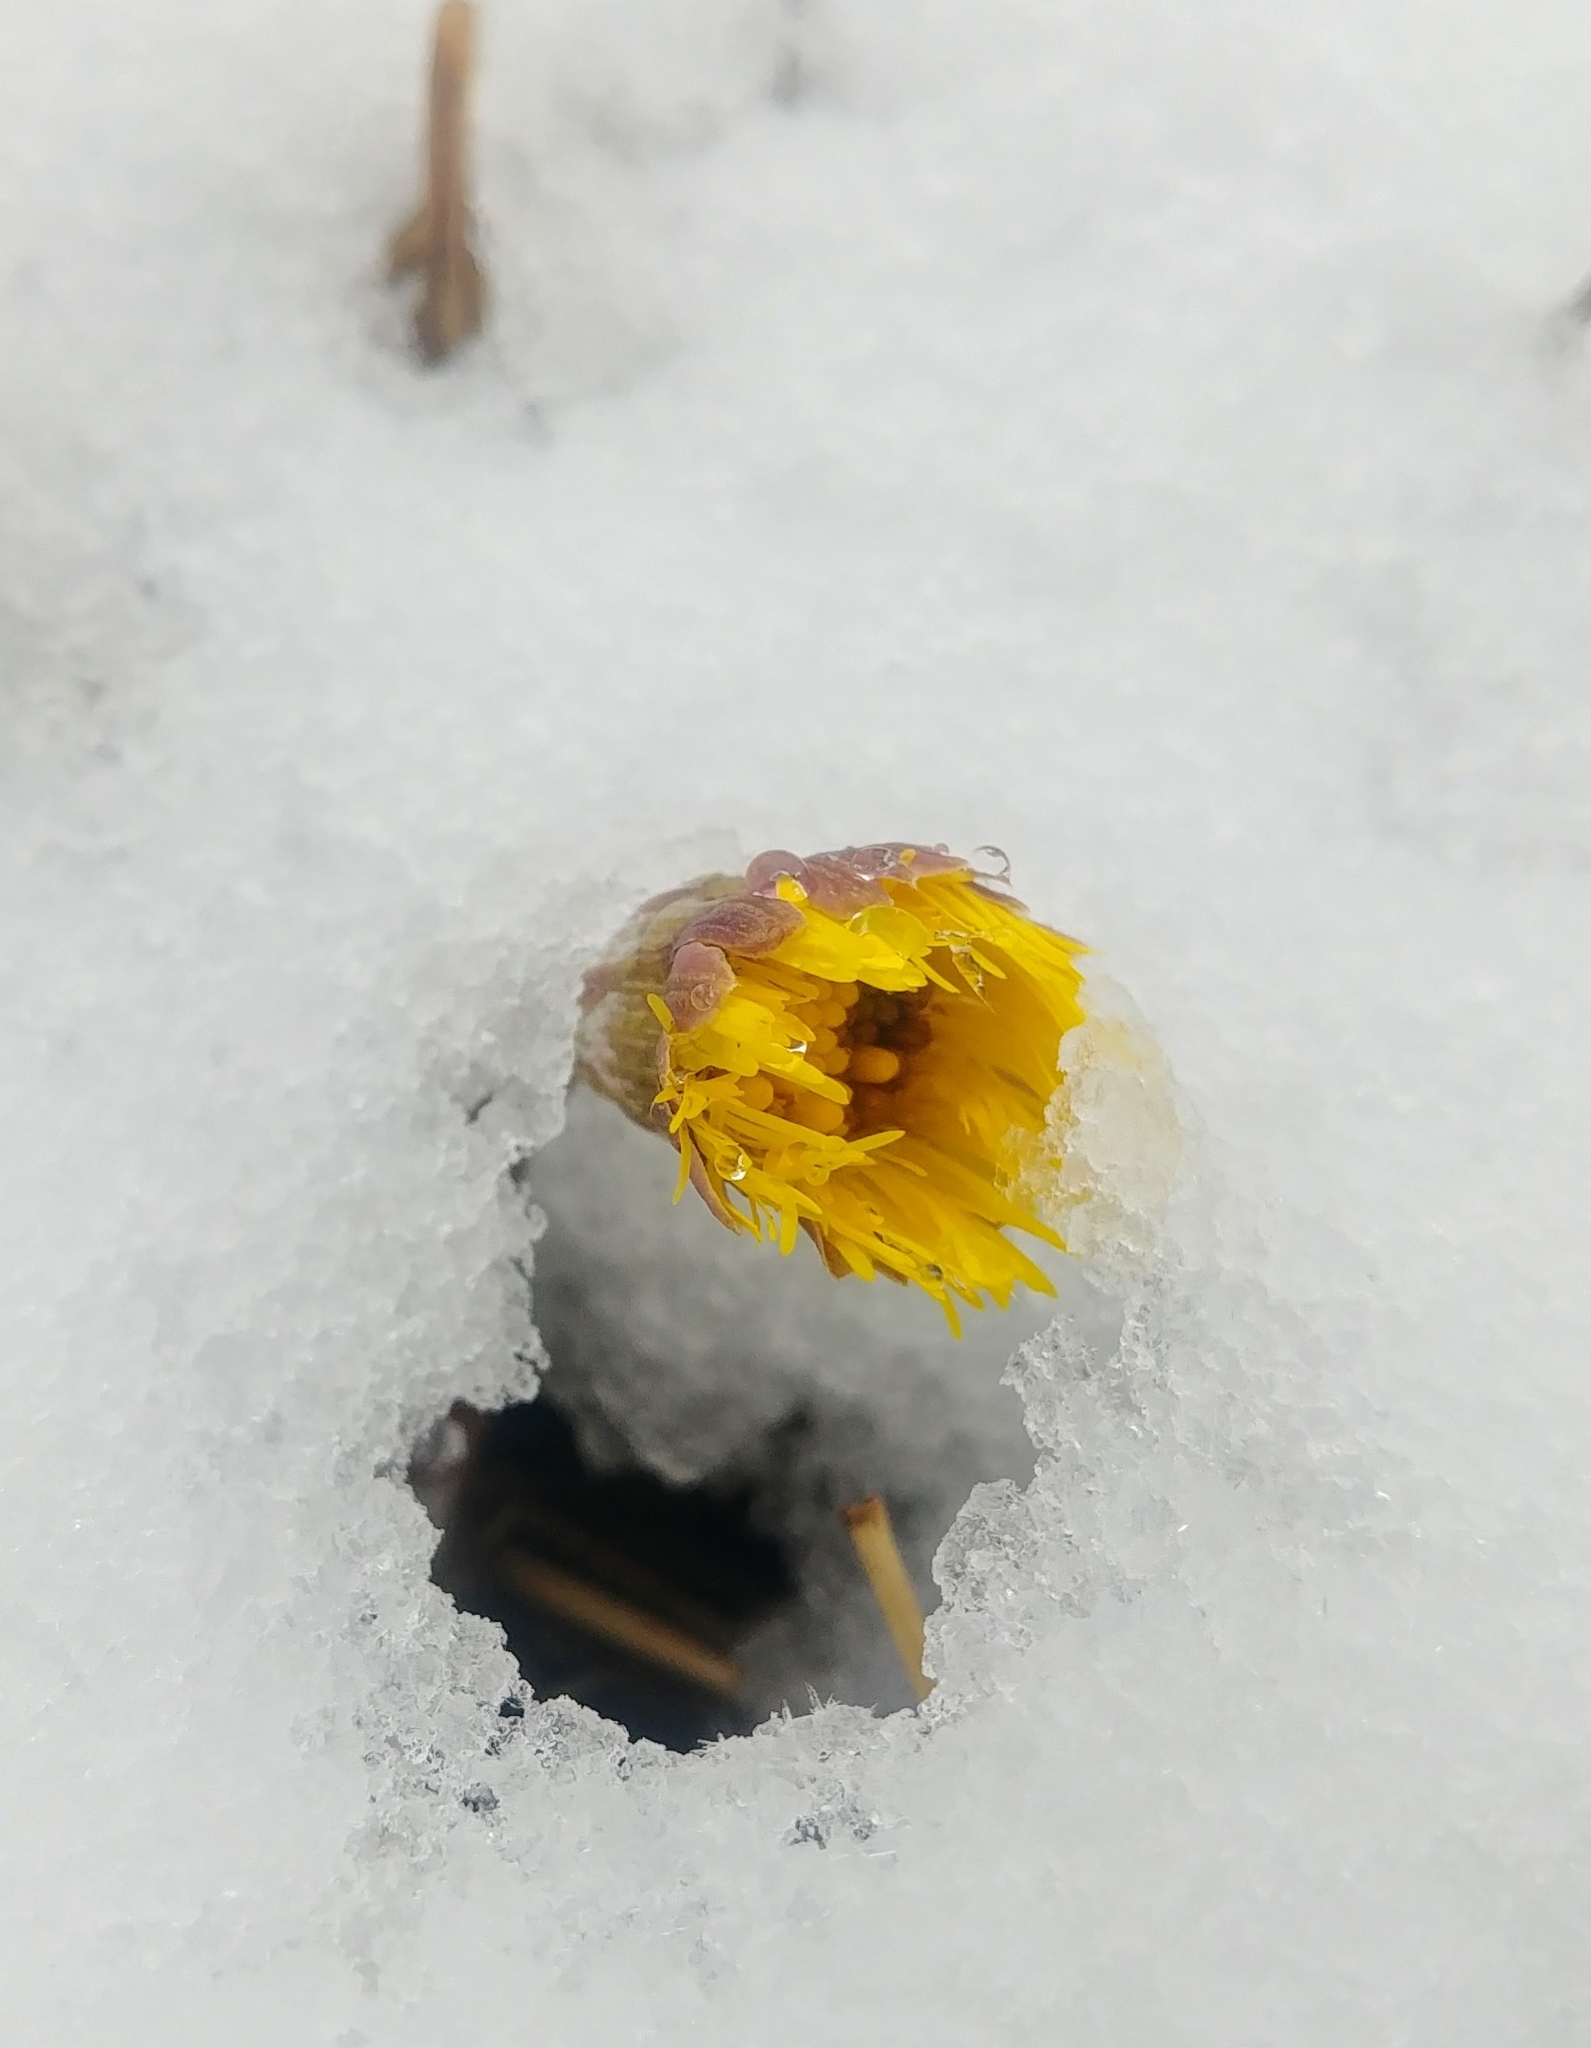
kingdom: Plantae
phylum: Tracheophyta
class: Magnoliopsida
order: Asterales
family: Asteraceae
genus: Tussilago
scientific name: Tussilago farfara
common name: Coltsfoot
